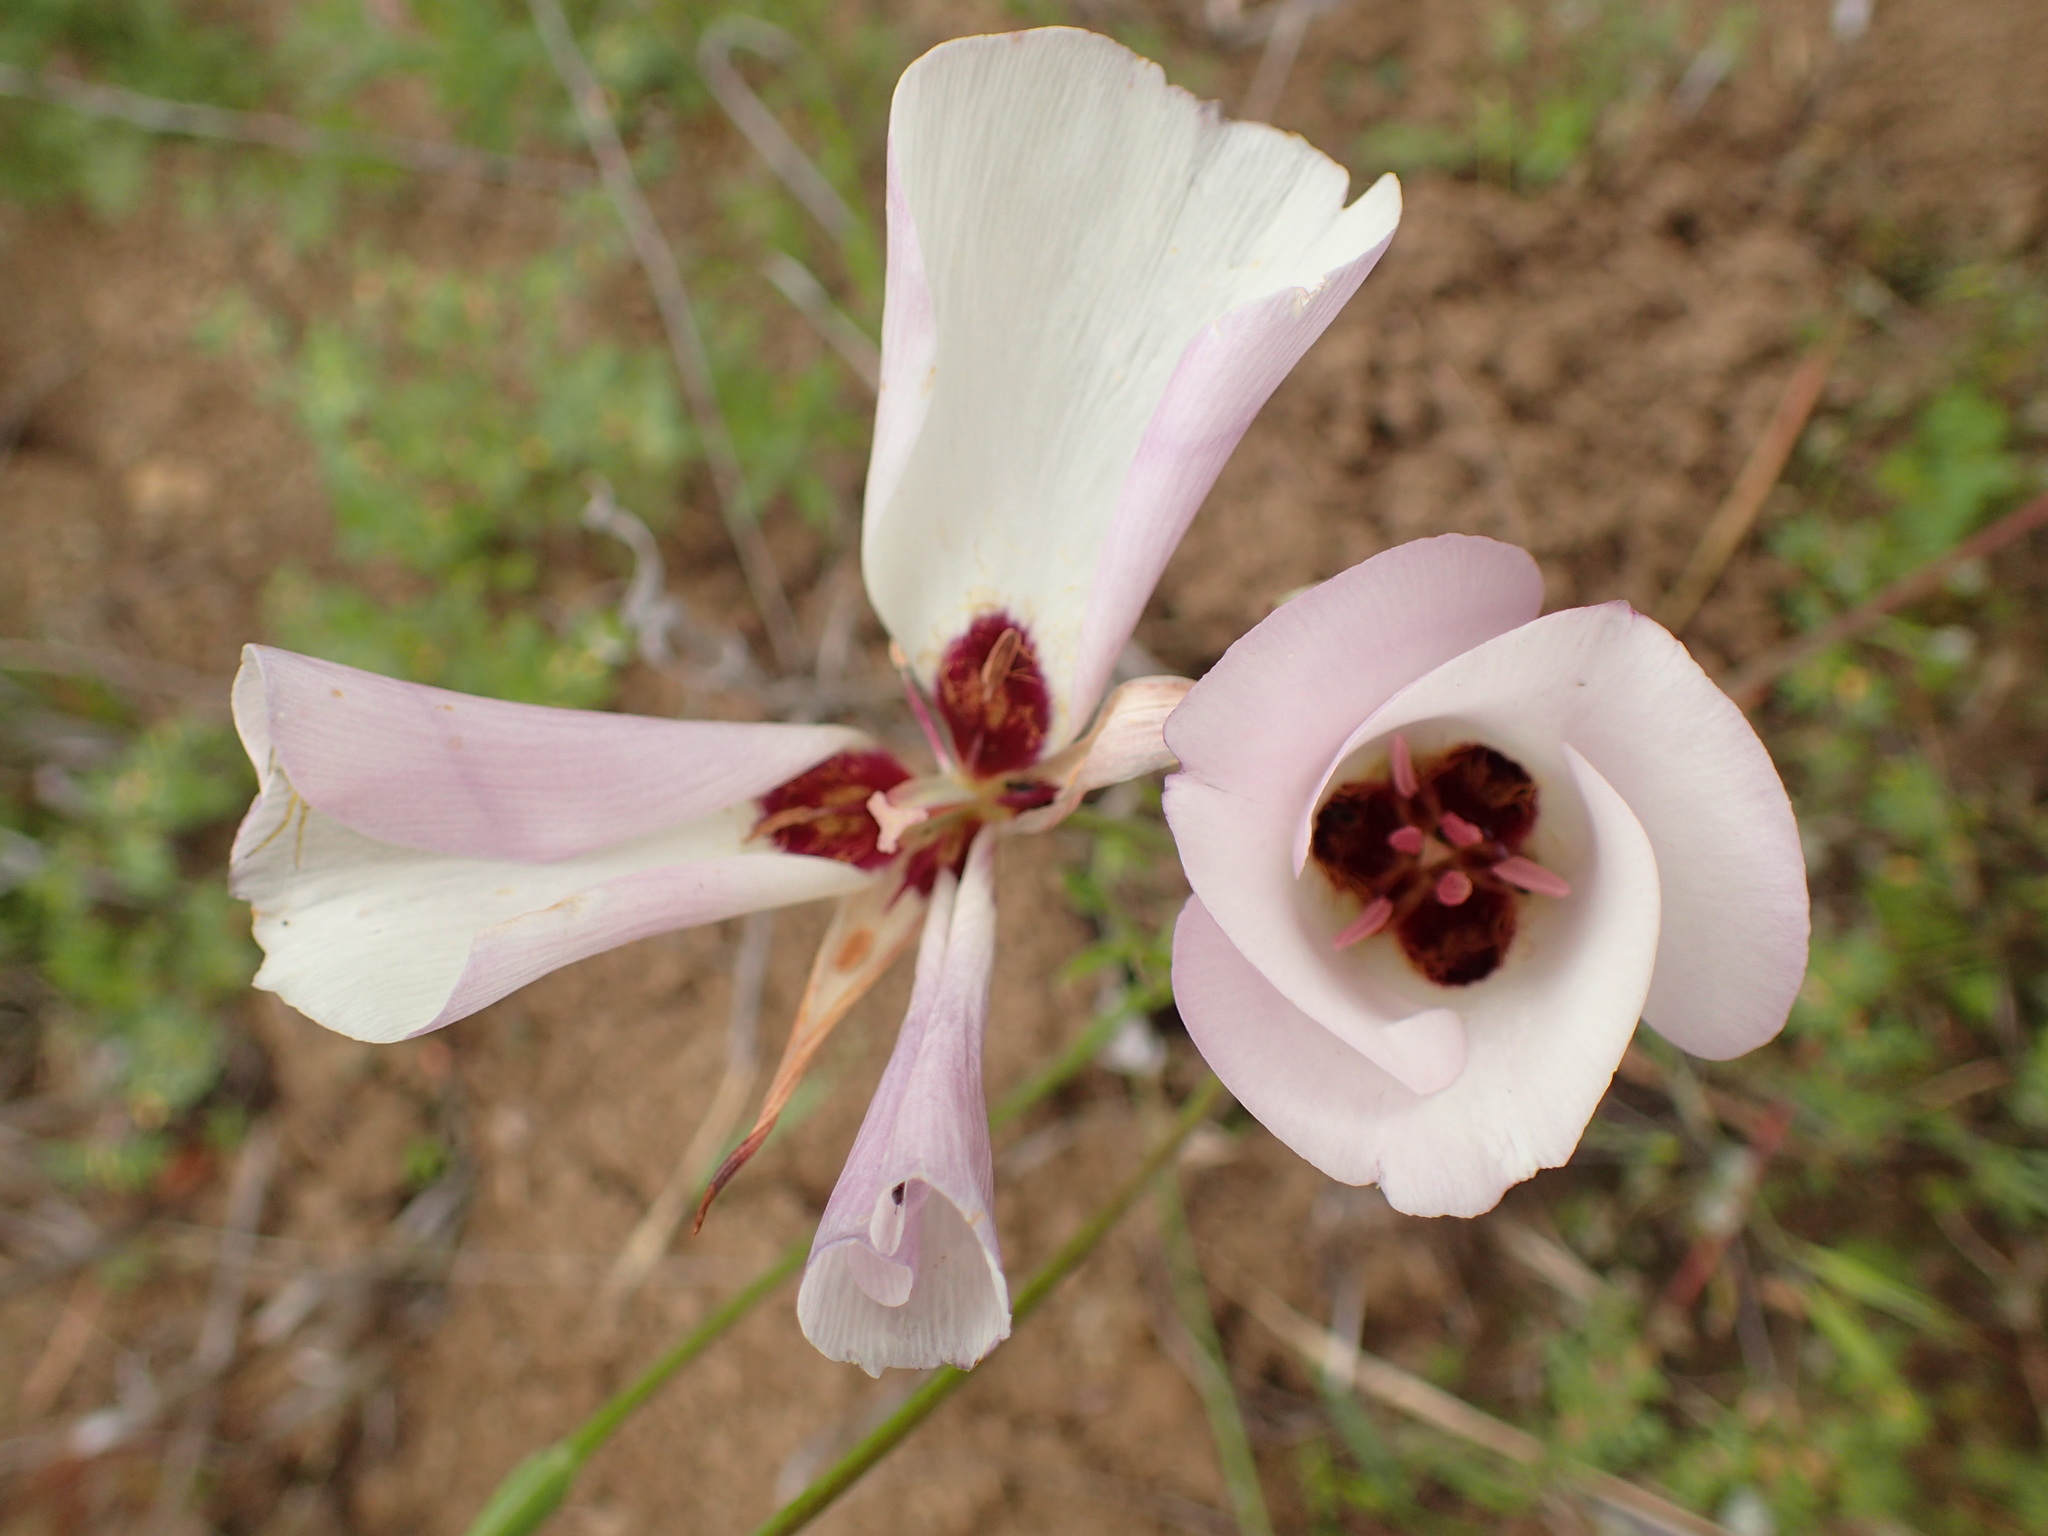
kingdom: Plantae
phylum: Tracheophyta
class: Liliopsida
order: Liliales
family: Liliaceae
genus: Calochortus
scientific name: Calochortus catalinae
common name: Catalina mariposa-lily
